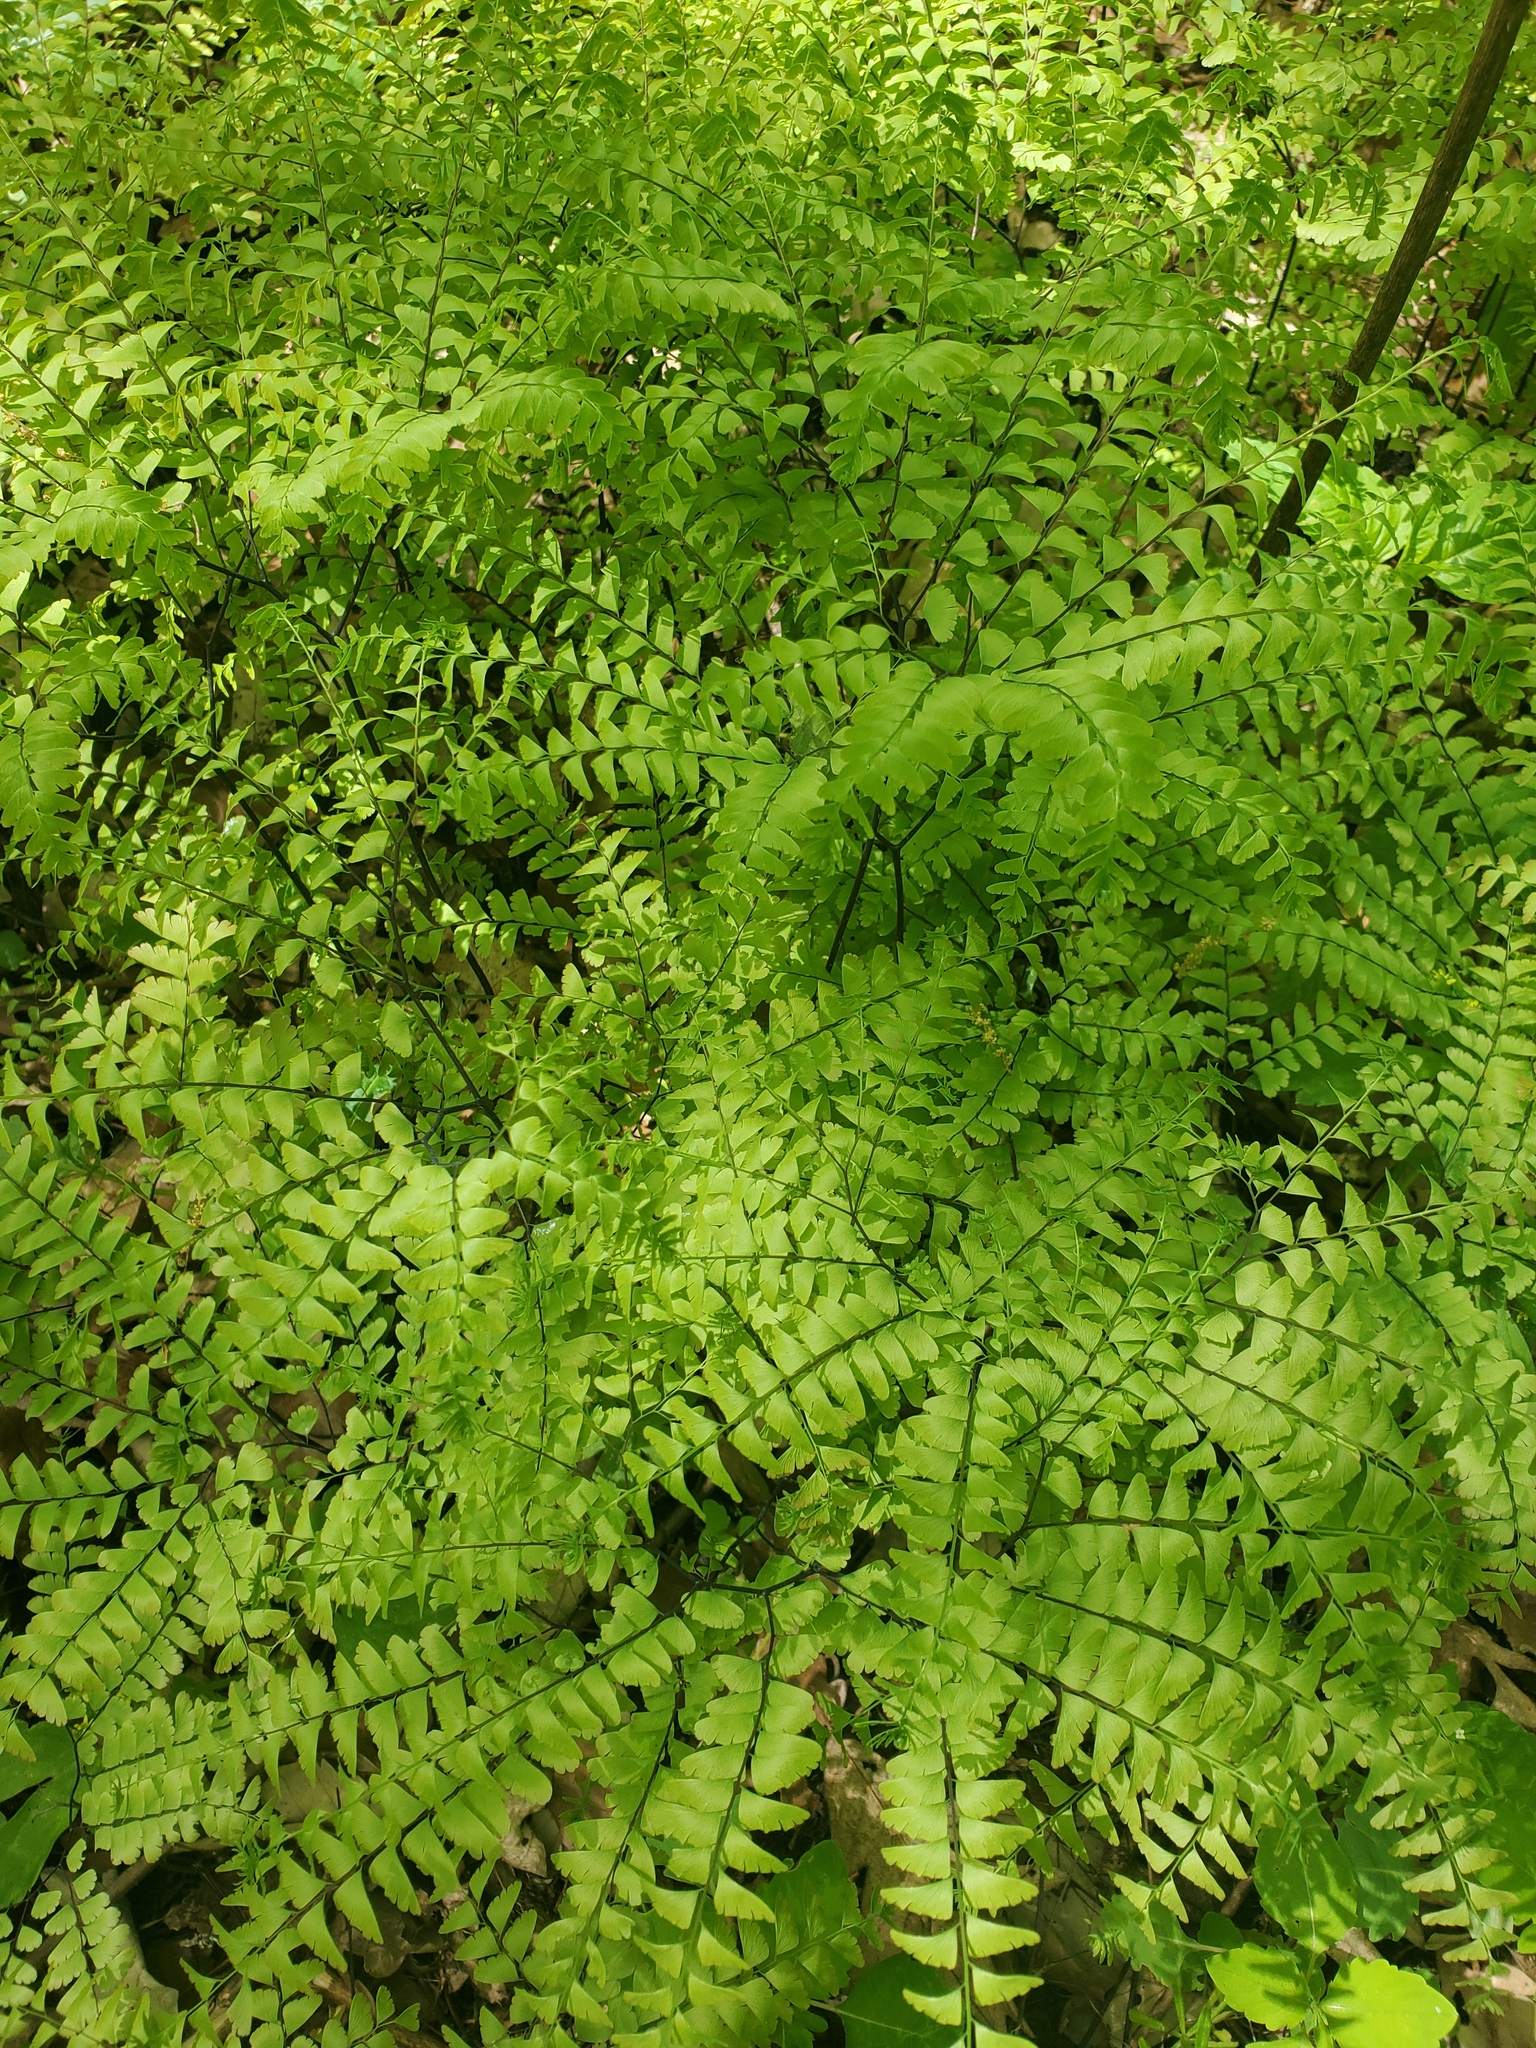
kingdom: Plantae
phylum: Tracheophyta
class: Polypodiopsida
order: Polypodiales
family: Pteridaceae
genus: Adiantum
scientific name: Adiantum pedatum
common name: Five-finger fern
